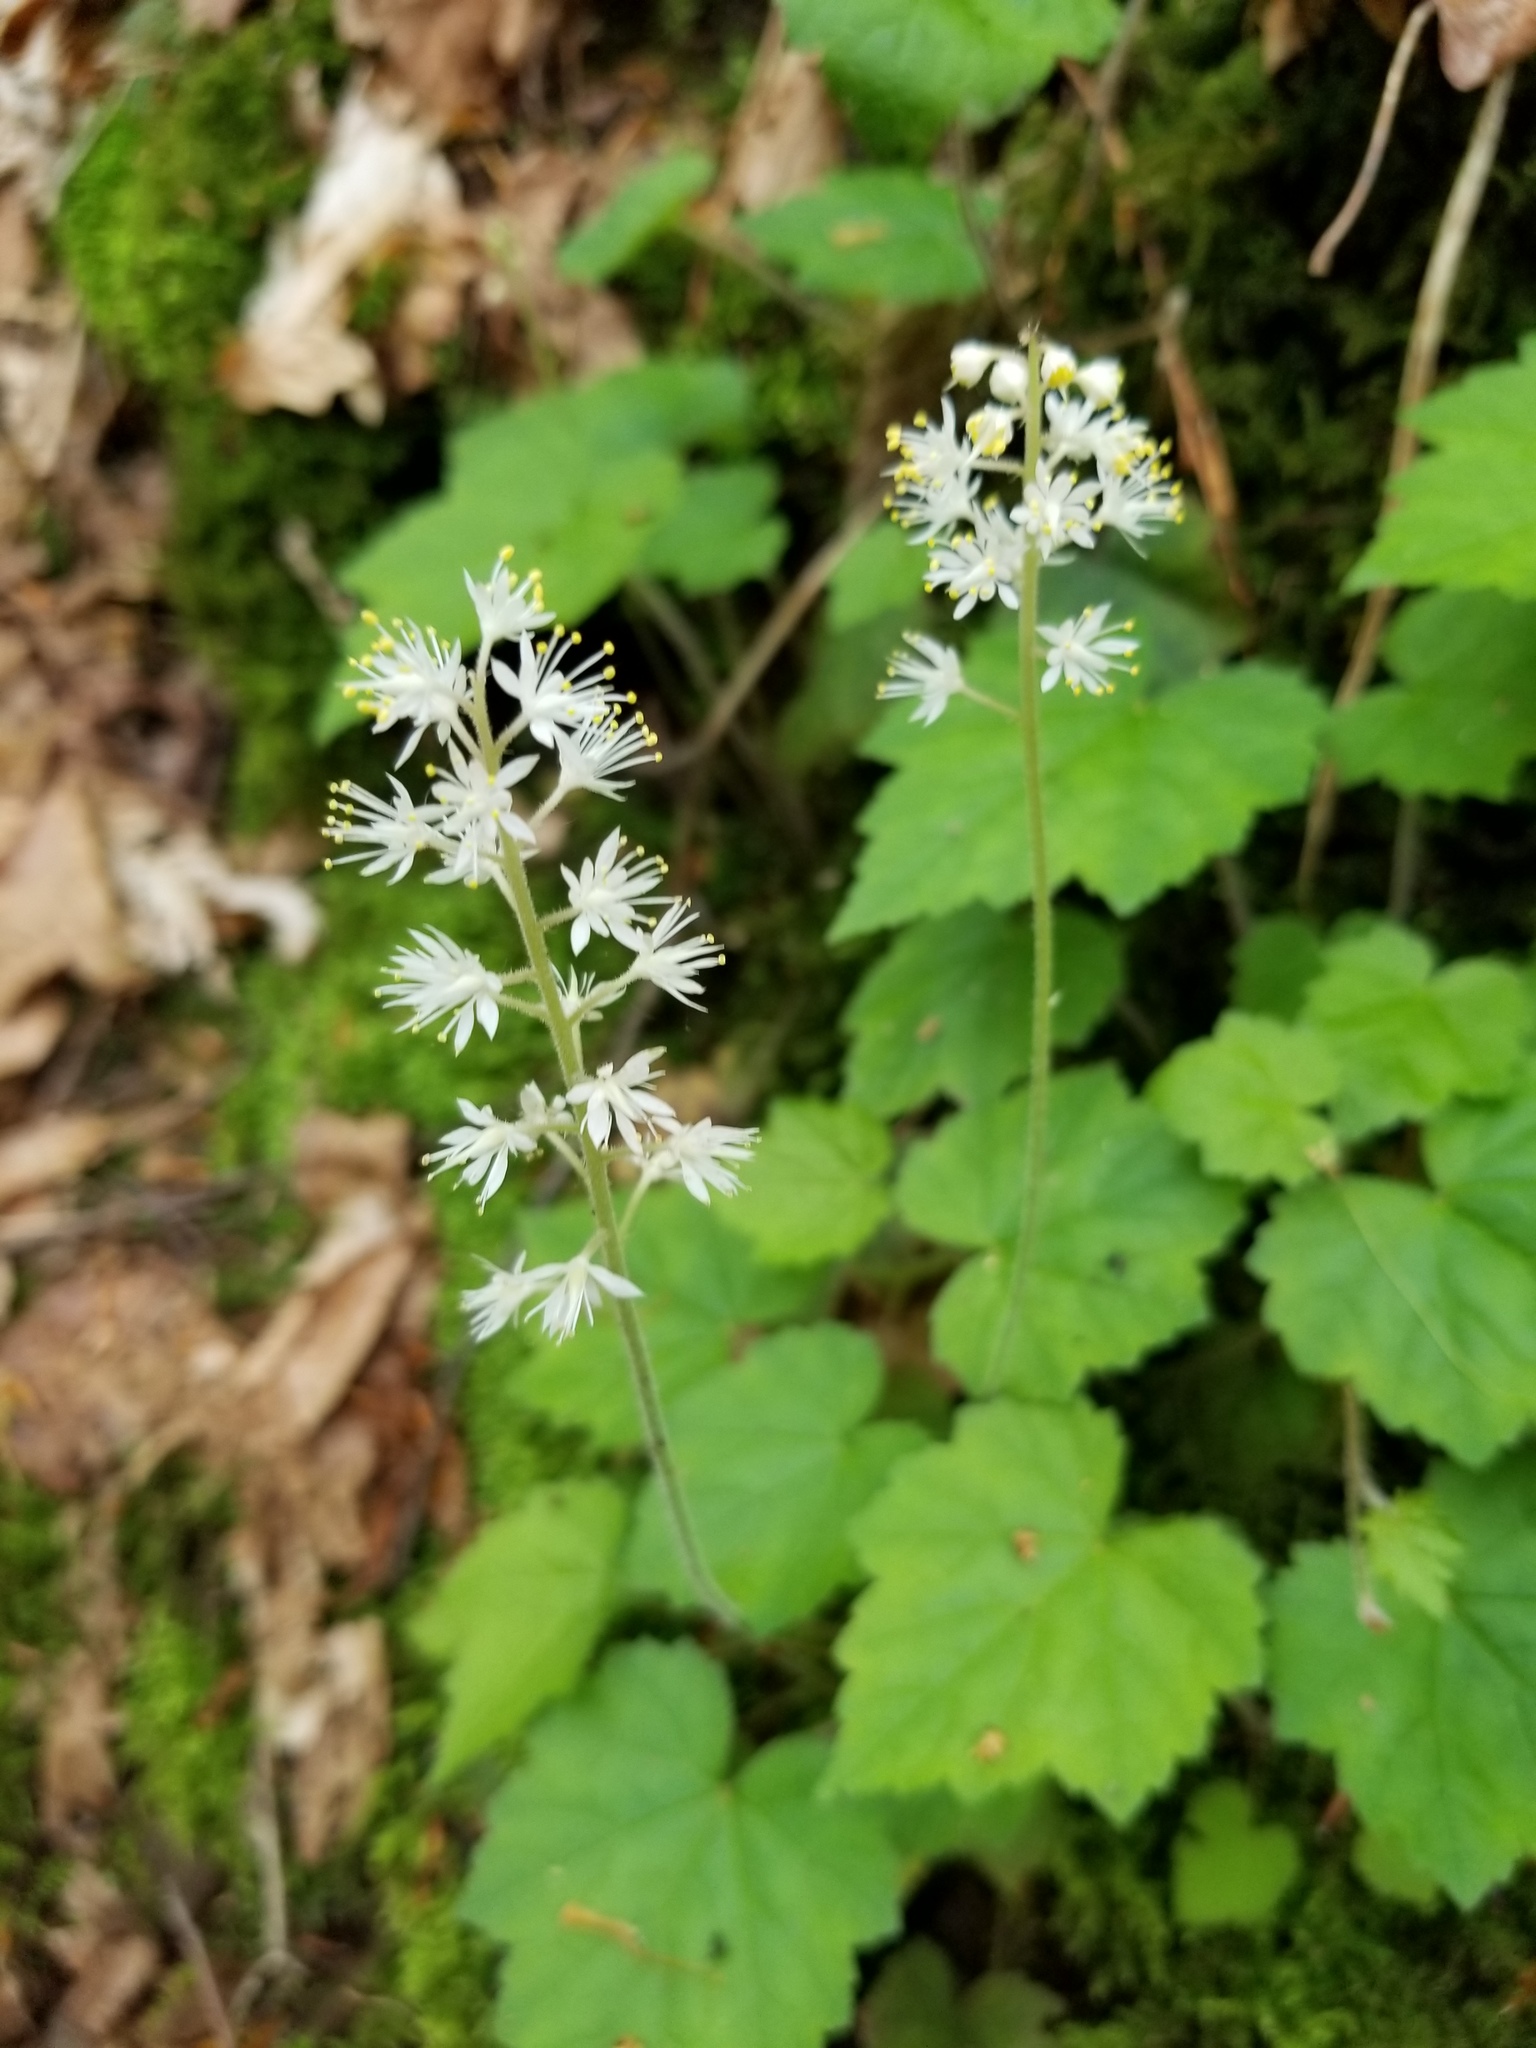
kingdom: Plantae
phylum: Tracheophyta
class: Magnoliopsida
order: Saxifragales
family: Saxifragaceae
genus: Tiarella
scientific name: Tiarella stolonifera
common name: Stoloniferous foamflower
